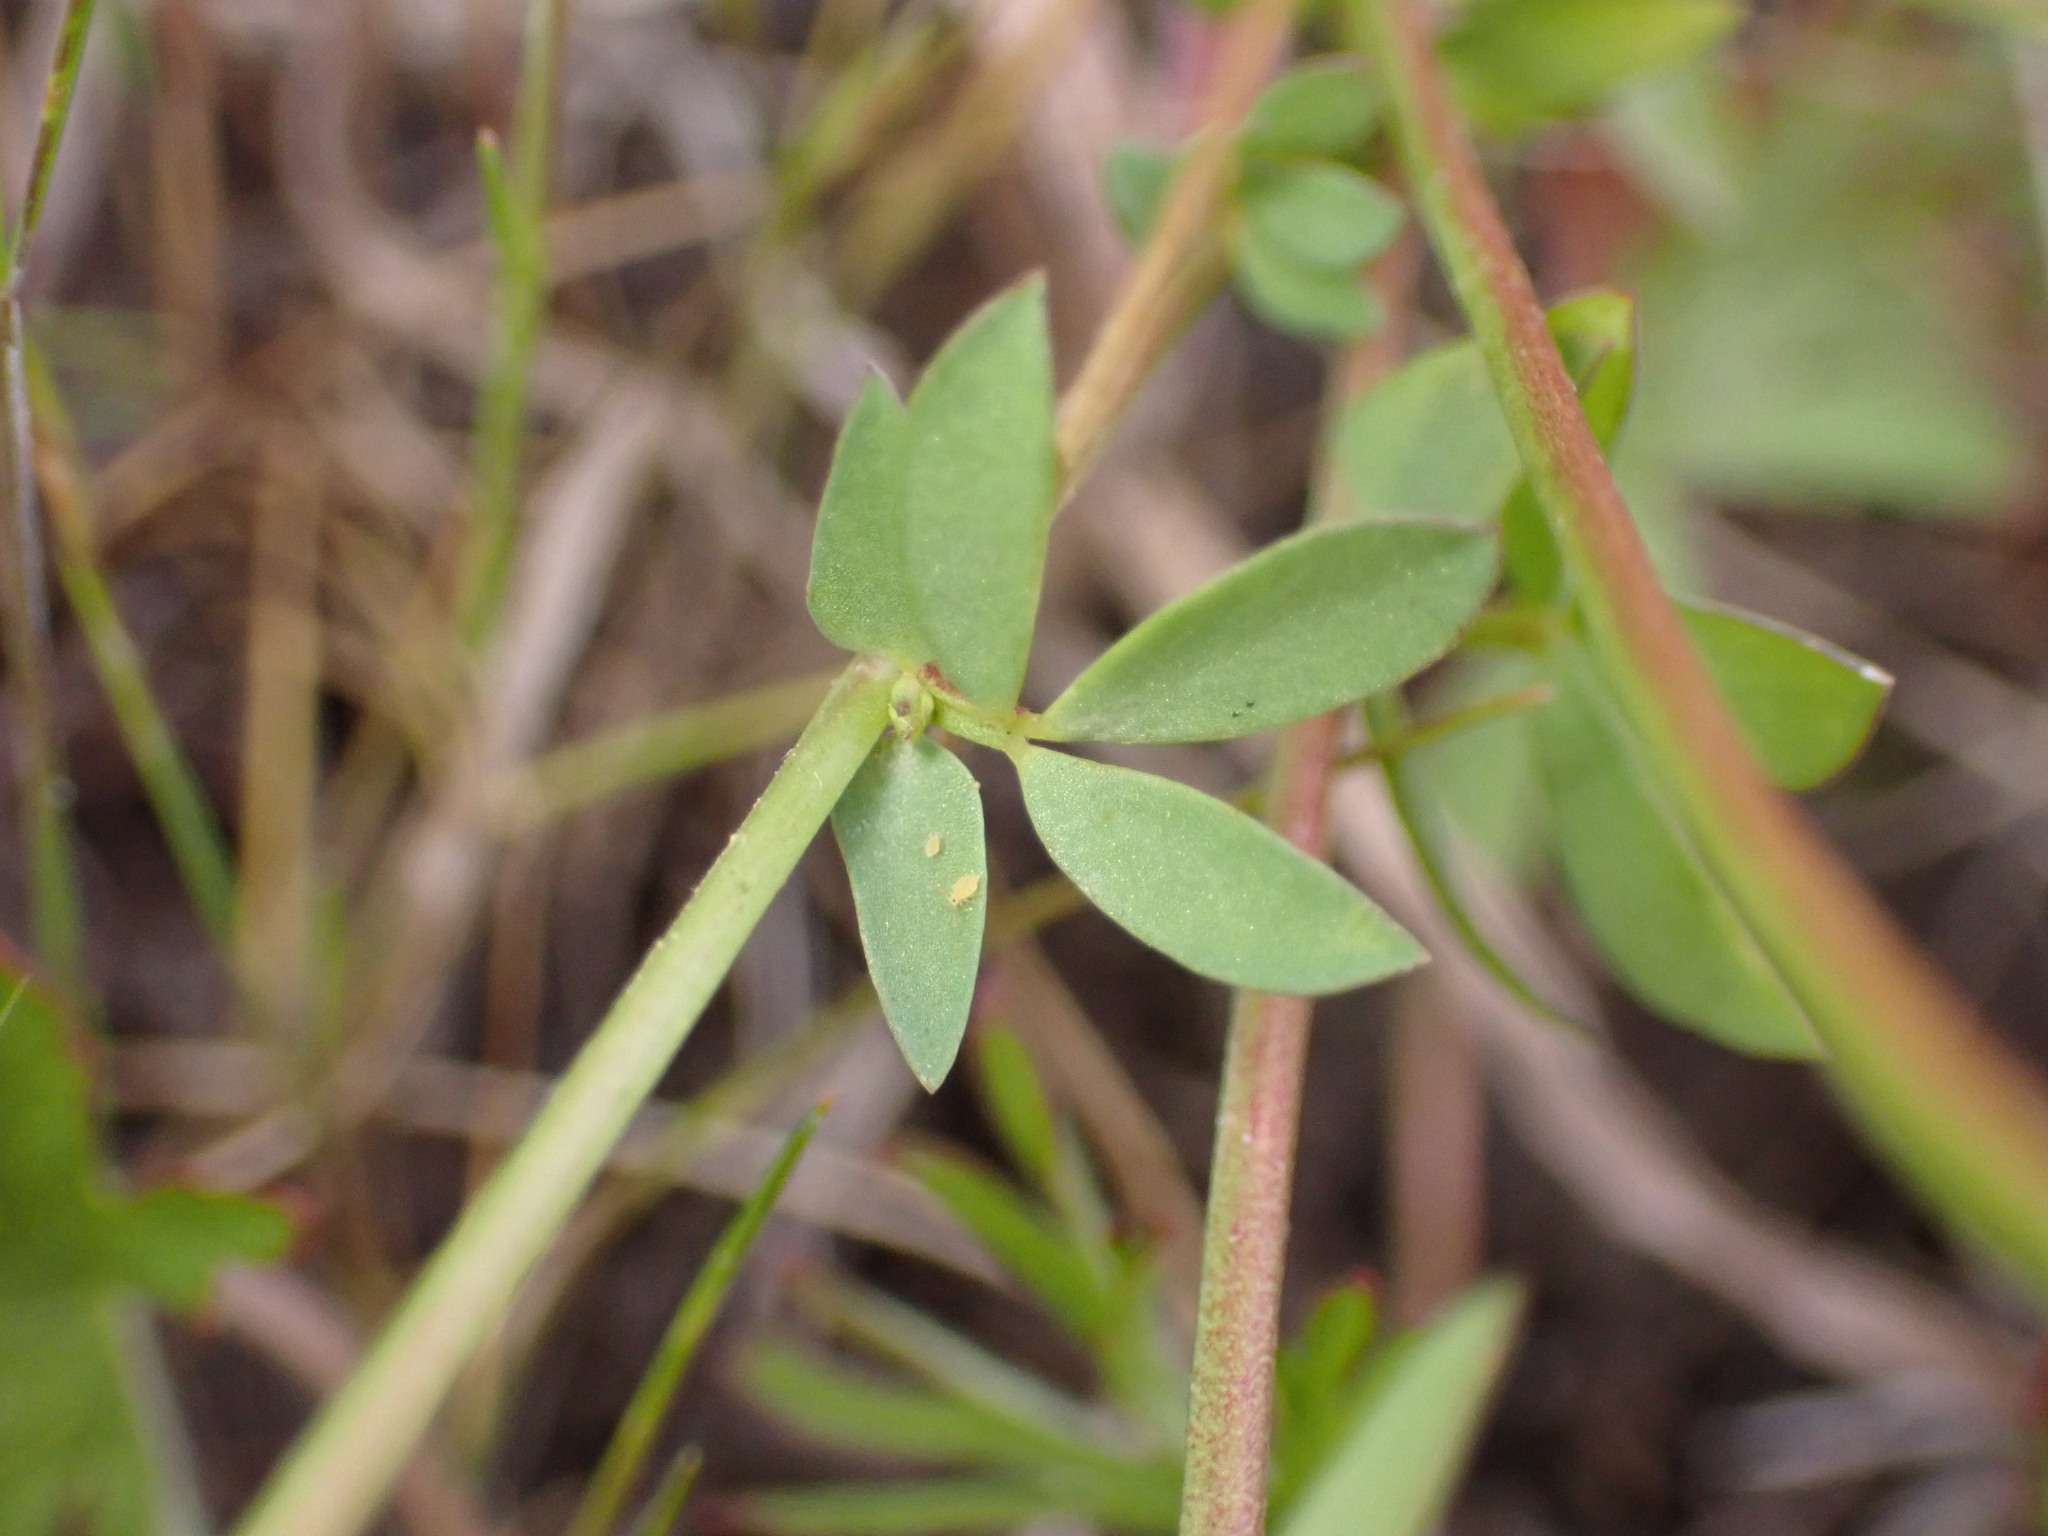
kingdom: Plantae
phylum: Tracheophyta
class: Magnoliopsida
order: Fabales
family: Fabaceae
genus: Lotus
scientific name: Lotus corniculatus
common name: Common bird's-foot-trefoil
